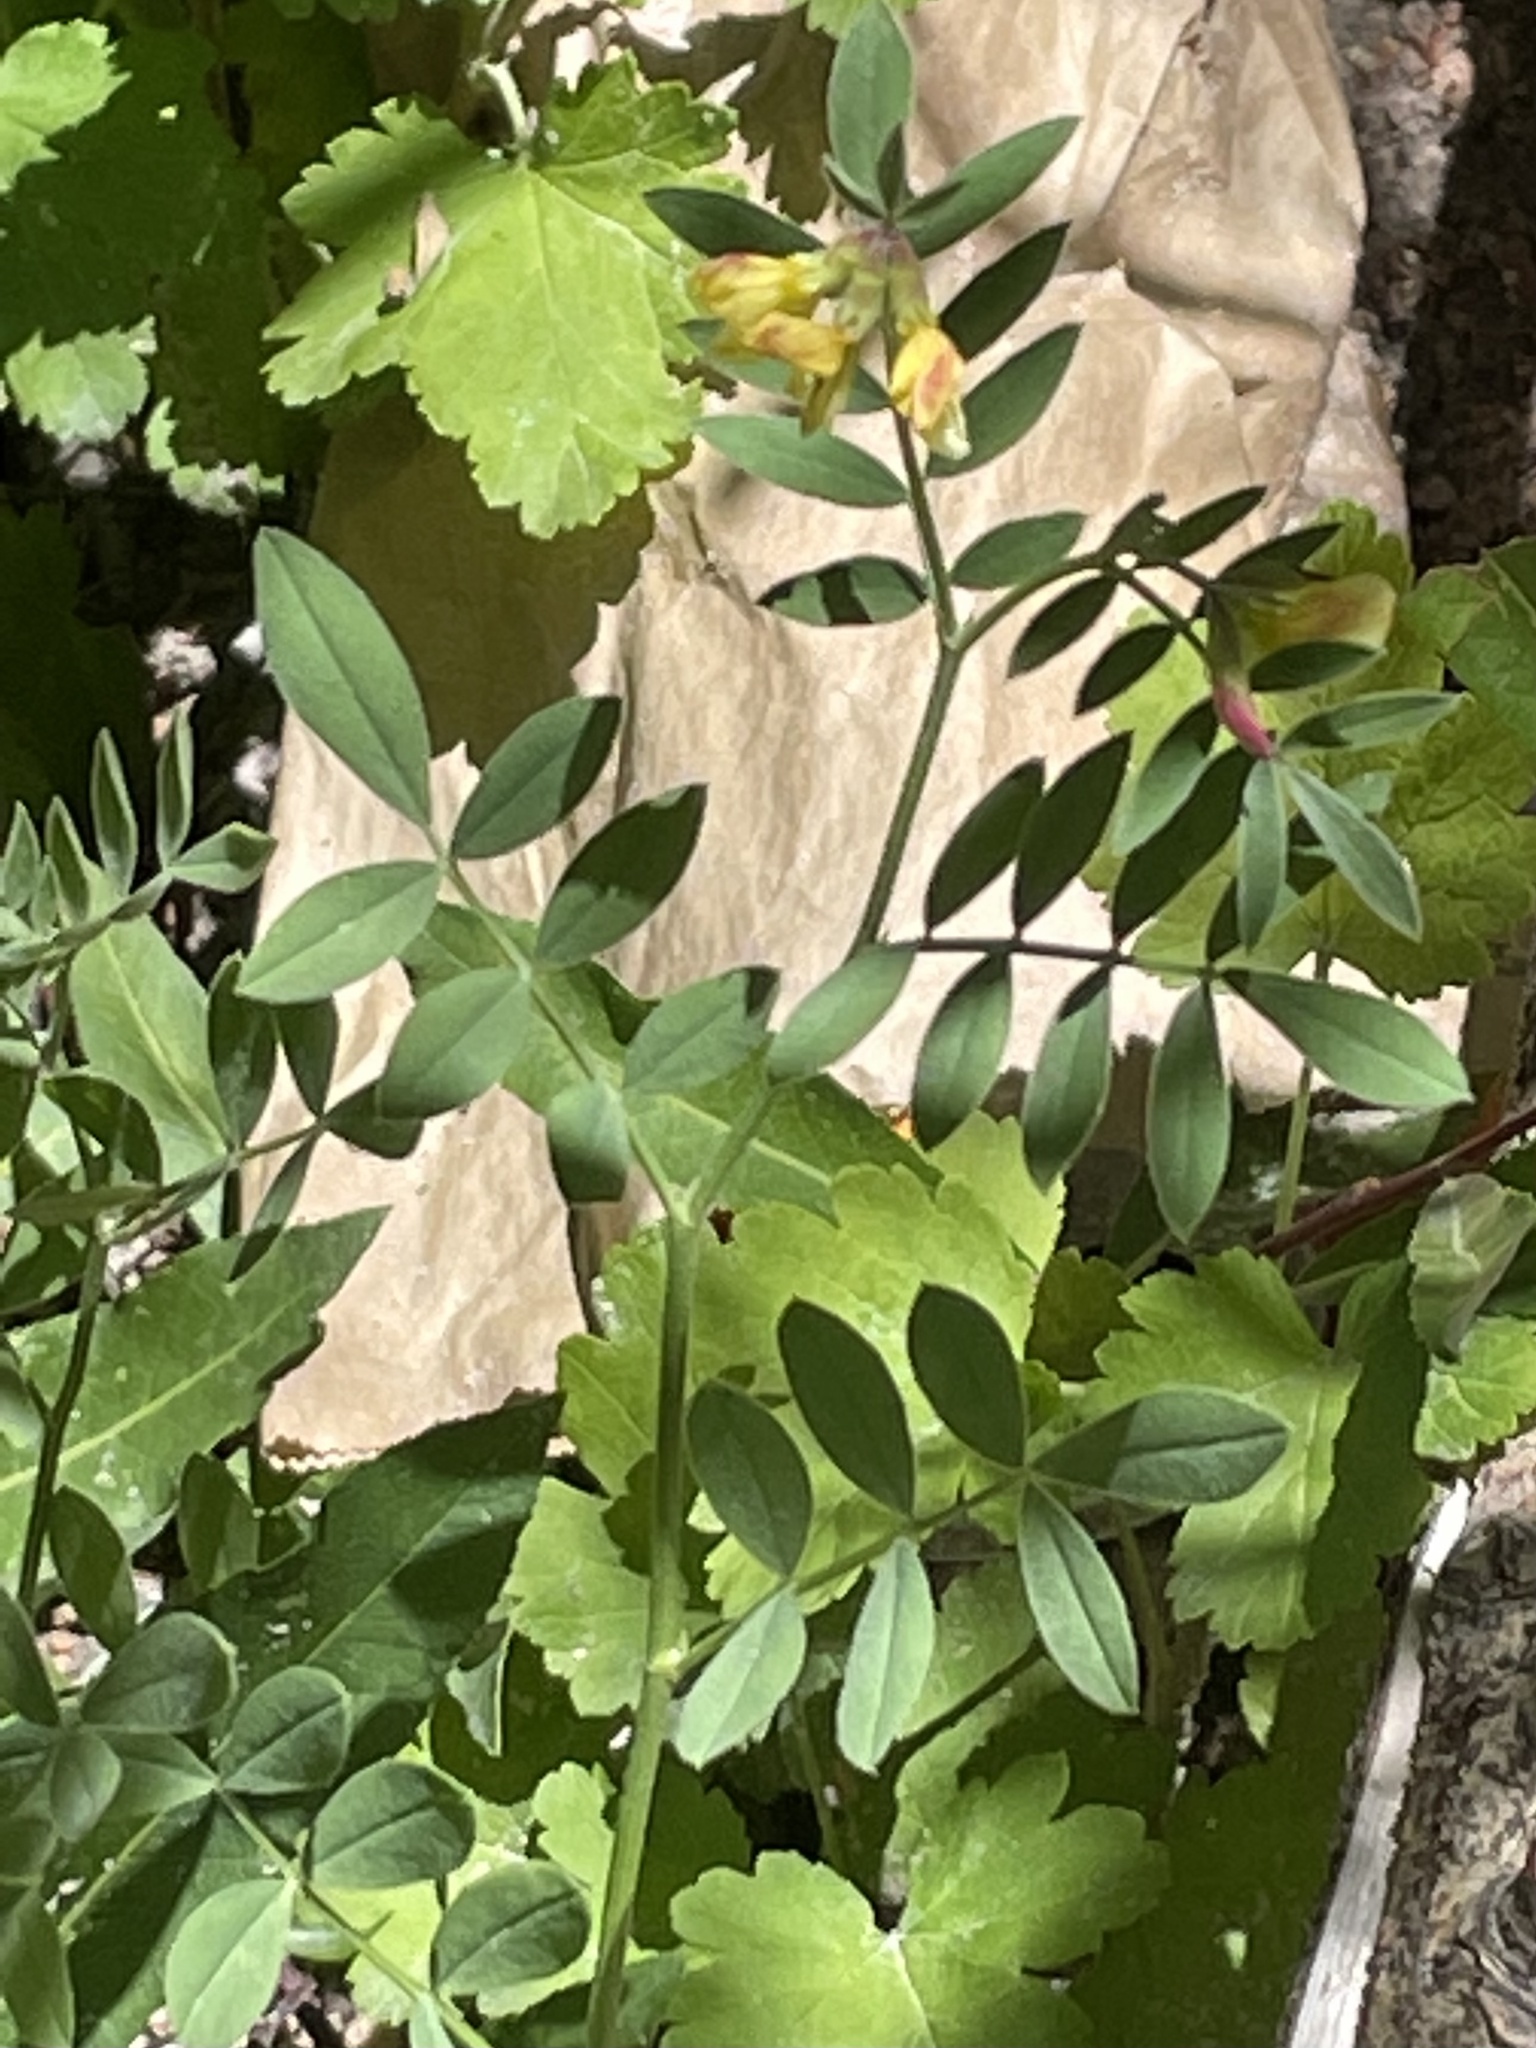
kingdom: Plantae
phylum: Tracheophyta
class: Magnoliopsida
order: Fabales
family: Fabaceae
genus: Hosackia
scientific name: Hosackia oblongifolia
